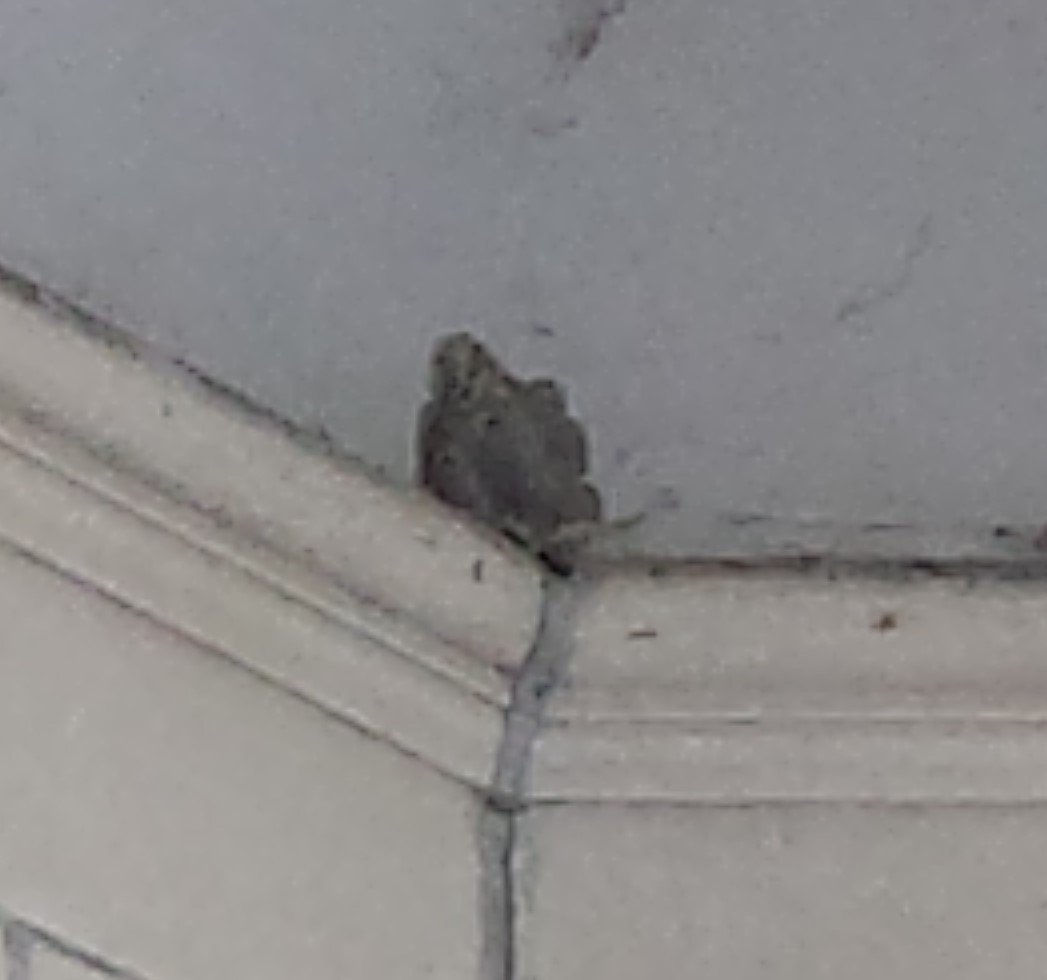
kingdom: Animalia
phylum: Arthropoda
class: Insecta
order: Hymenoptera
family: Sphecidae
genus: Sceliphron
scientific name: Sceliphron caementarium
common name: Mud dauber
